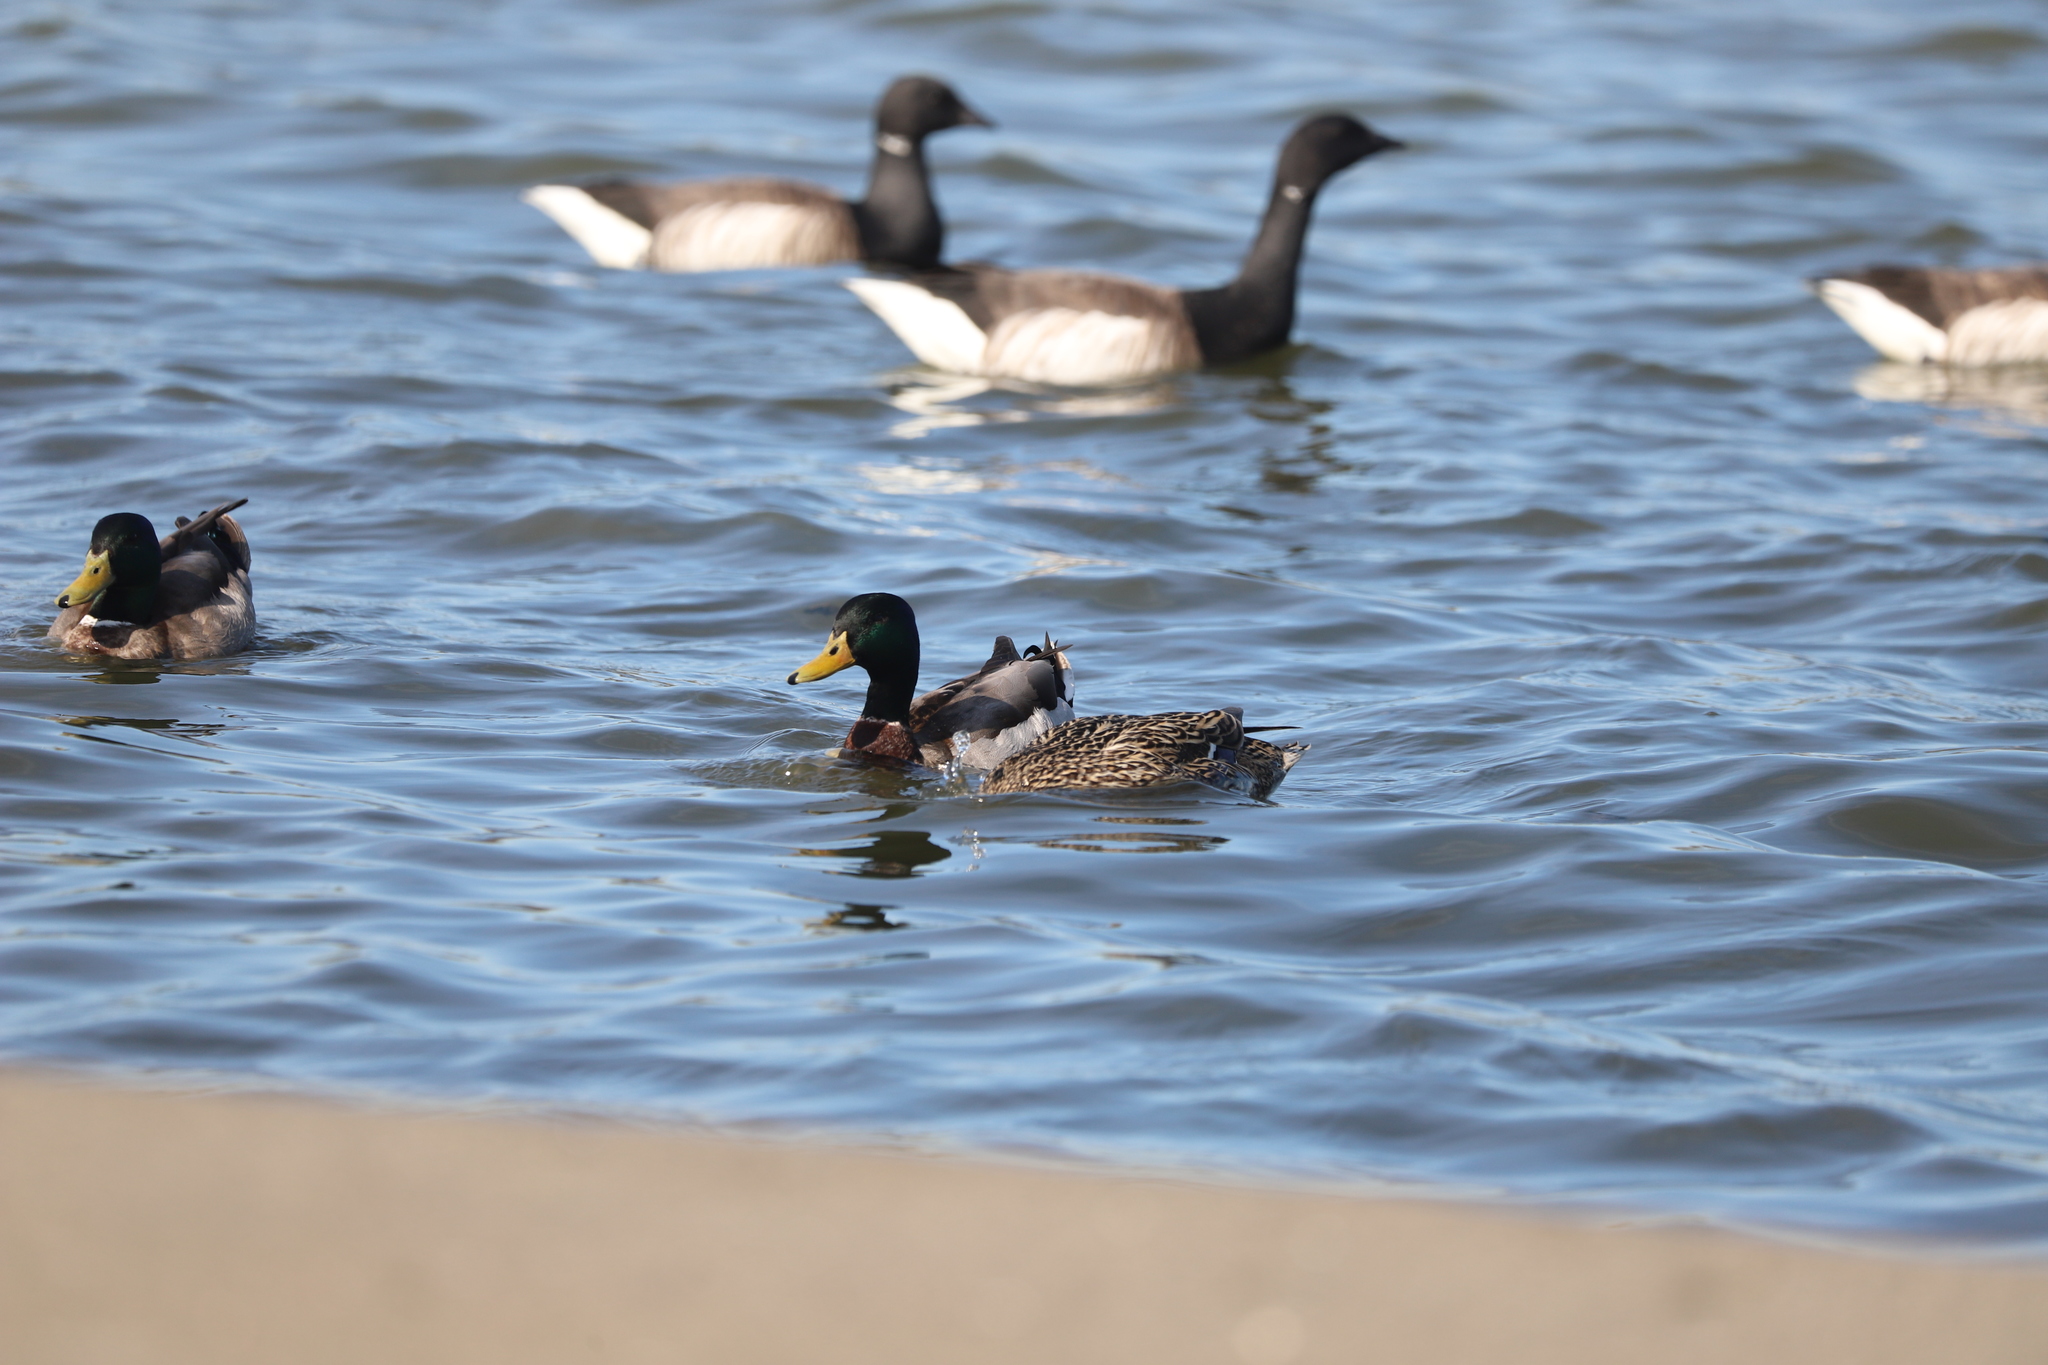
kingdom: Animalia
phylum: Chordata
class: Aves
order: Anseriformes
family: Anatidae
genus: Anas
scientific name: Anas platyrhynchos
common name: Mallard
